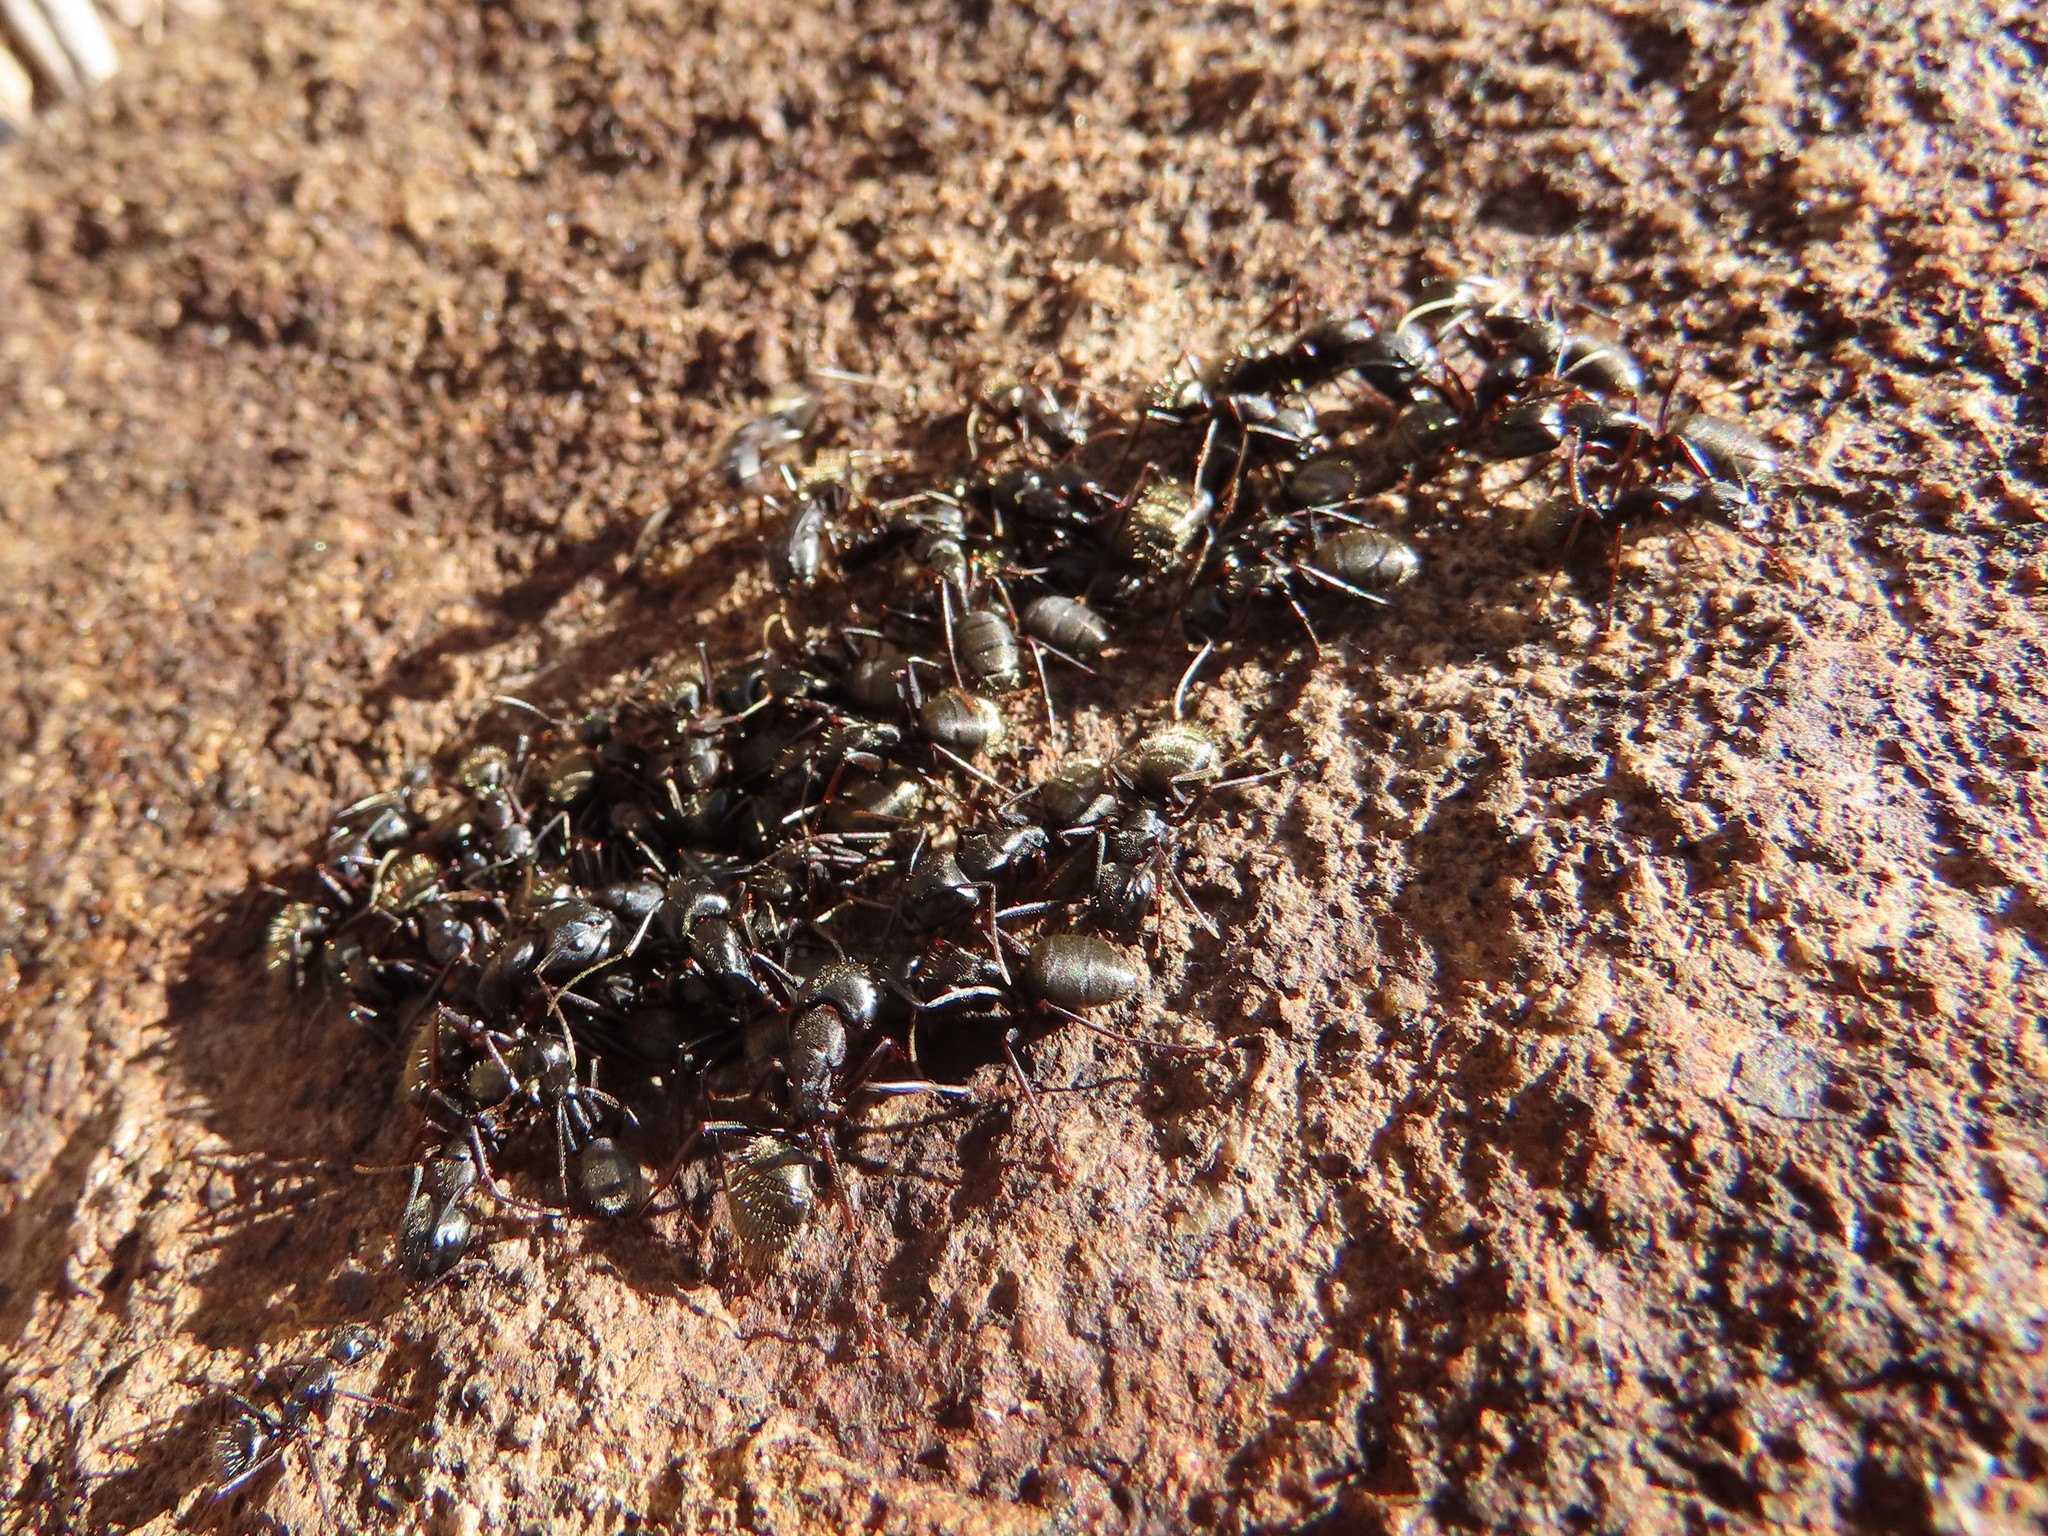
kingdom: Animalia
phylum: Arthropoda
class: Insecta
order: Hymenoptera
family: Formicidae
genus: Camponotus
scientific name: Camponotus pennsylvanicus
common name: Black carpenter ant
